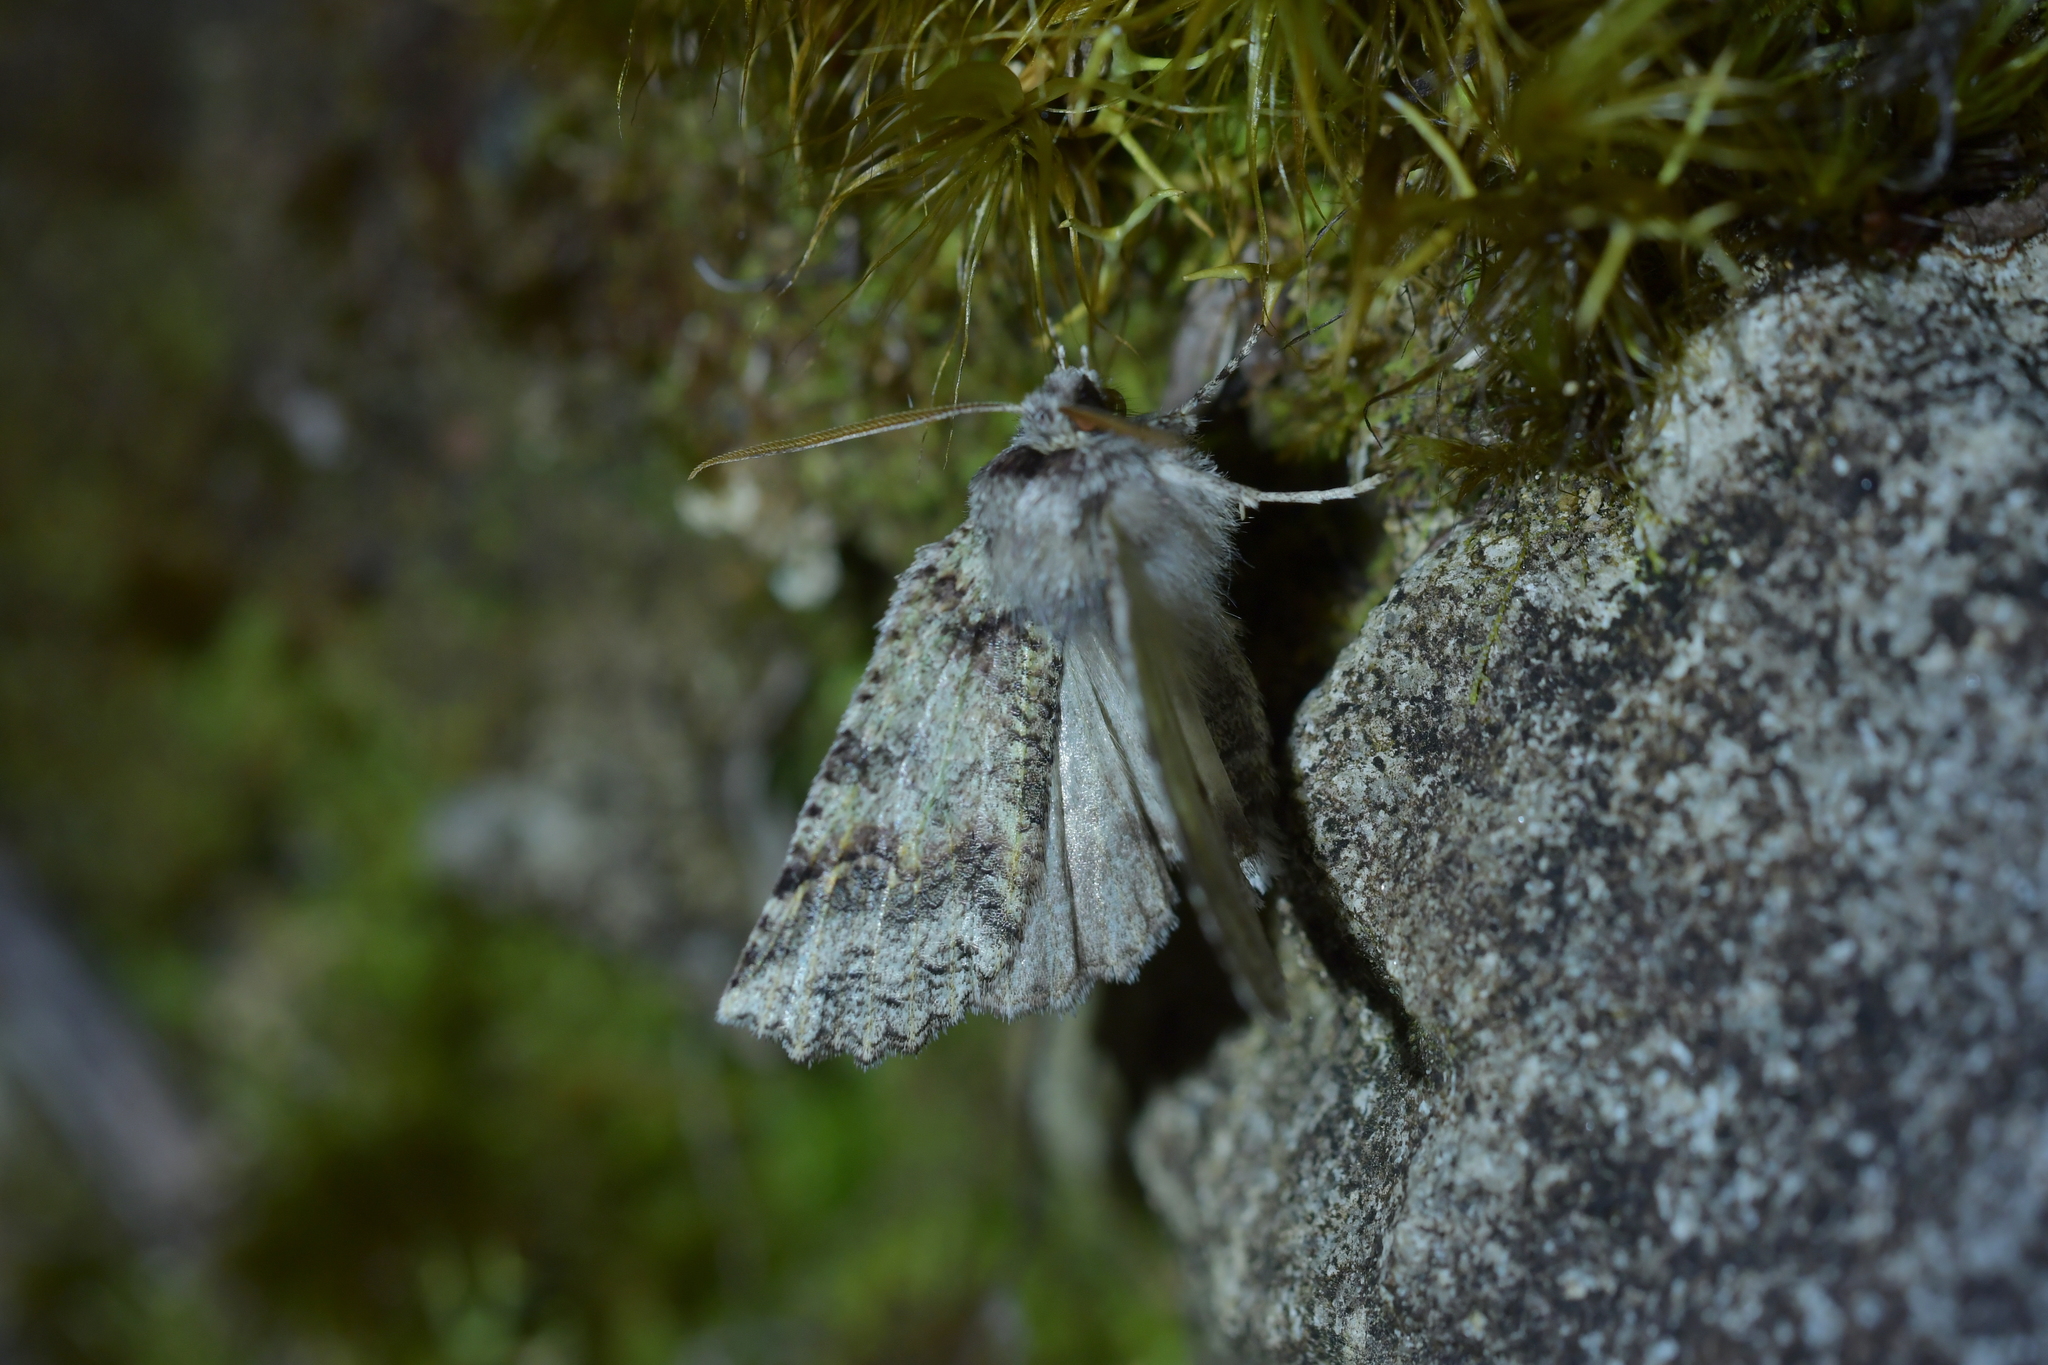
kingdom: Animalia
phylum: Arthropoda
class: Insecta
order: Lepidoptera
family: Geometridae
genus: Declana
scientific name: Declana floccosa
